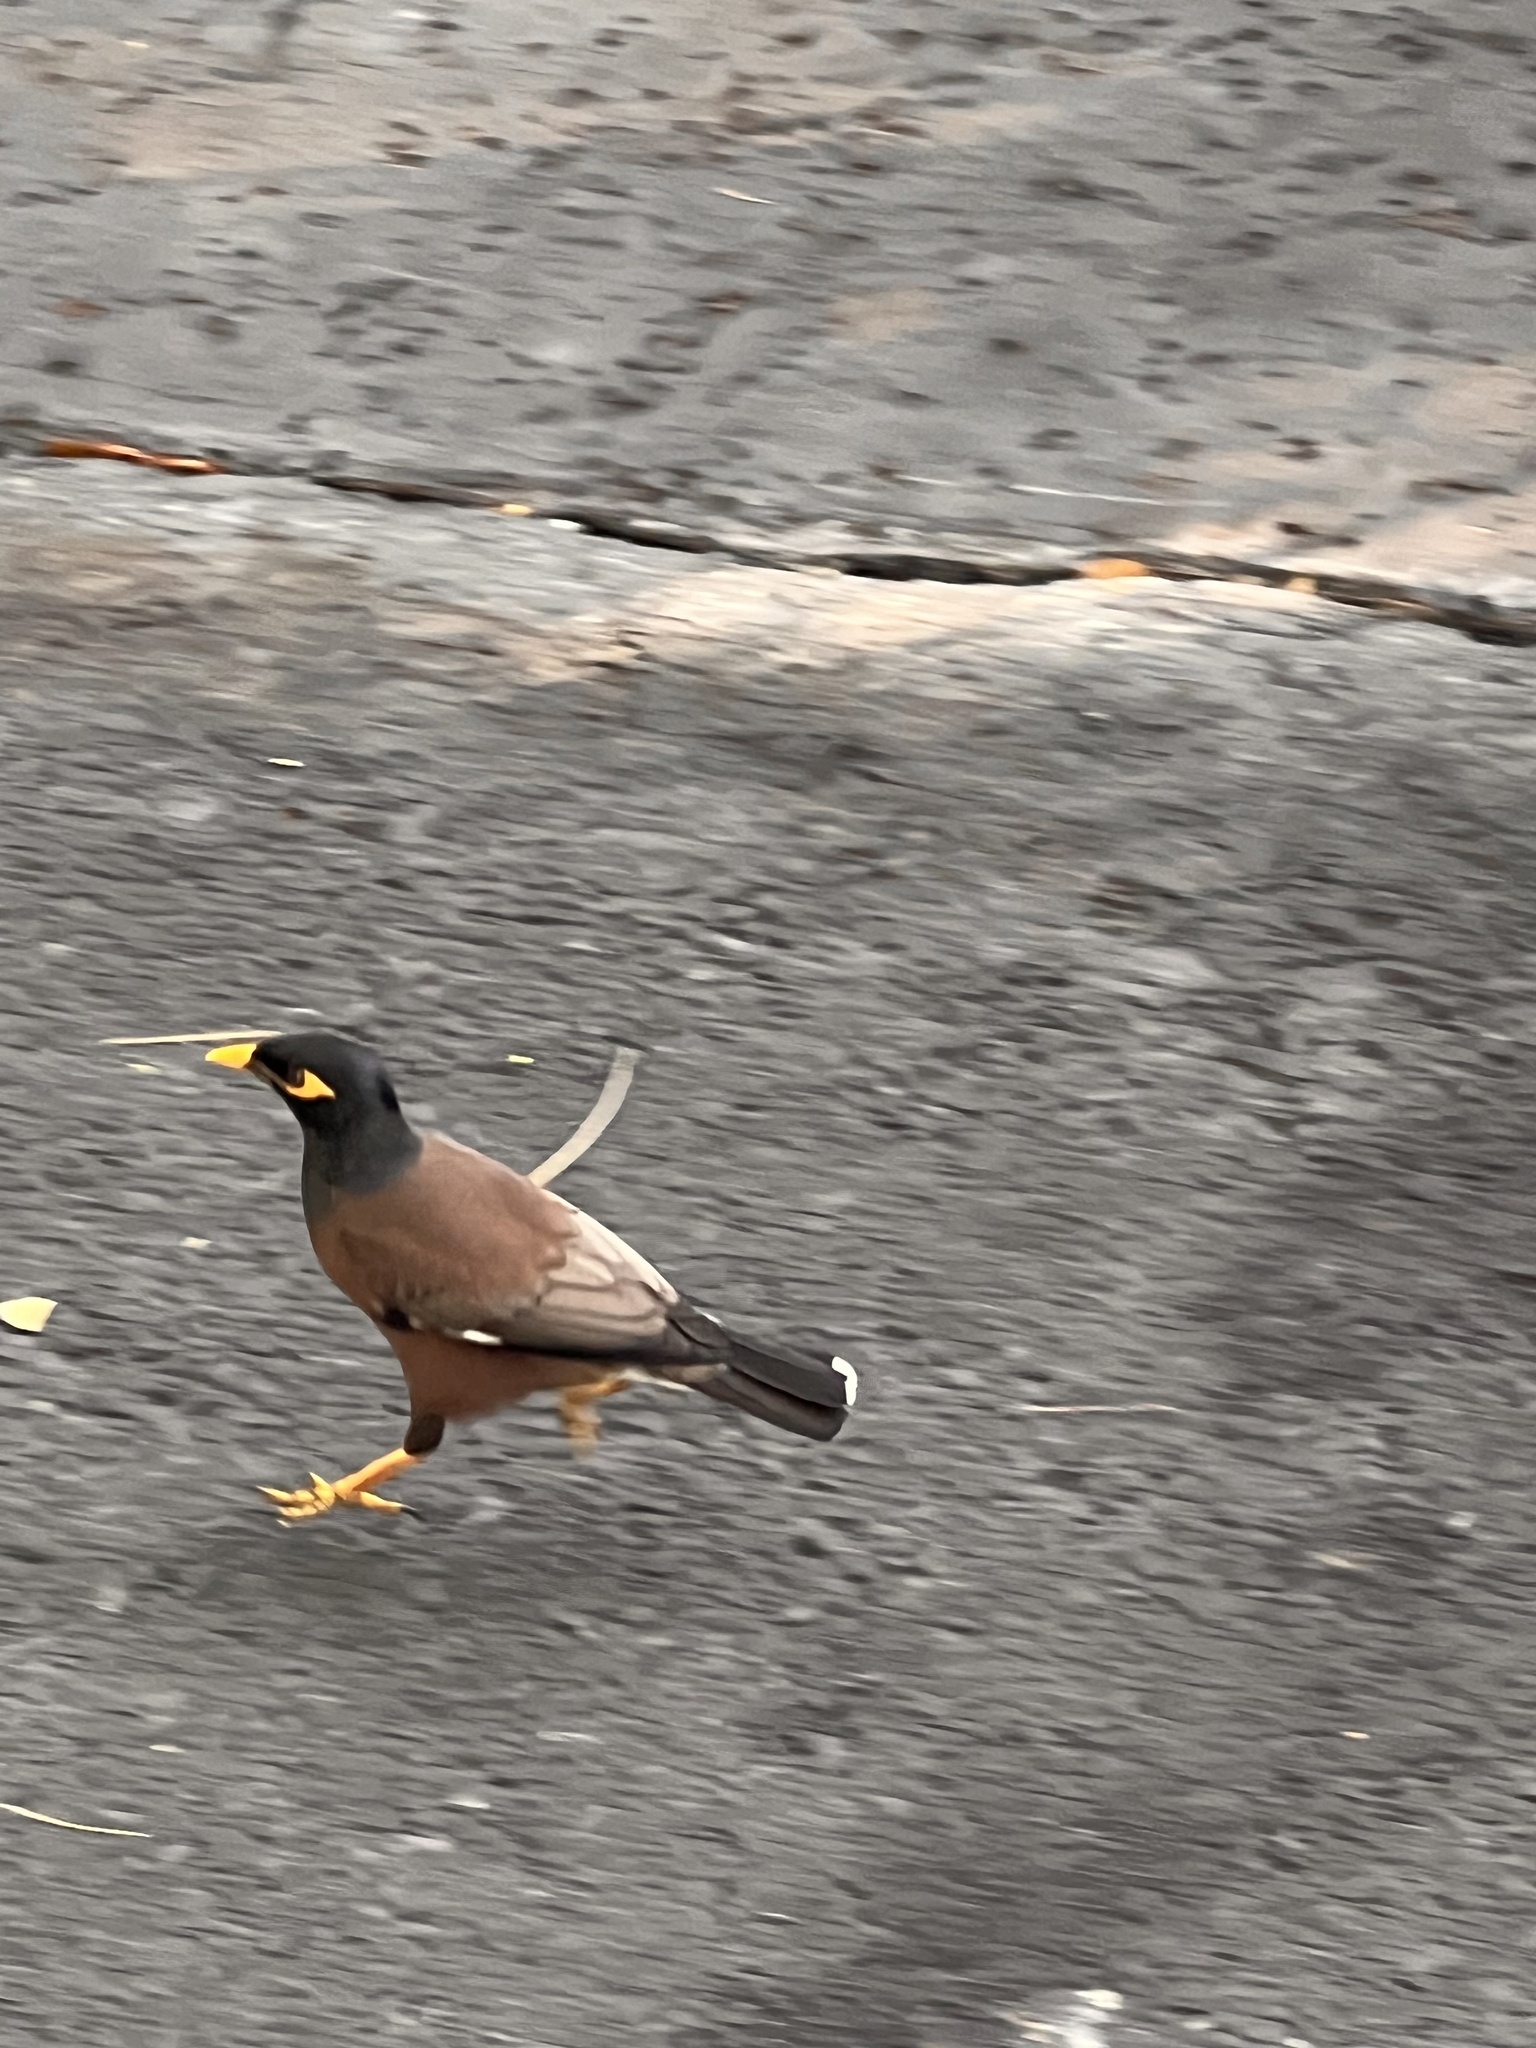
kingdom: Animalia
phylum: Chordata
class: Aves
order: Passeriformes
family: Sturnidae
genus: Acridotheres
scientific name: Acridotheres tristis
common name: Common myna
